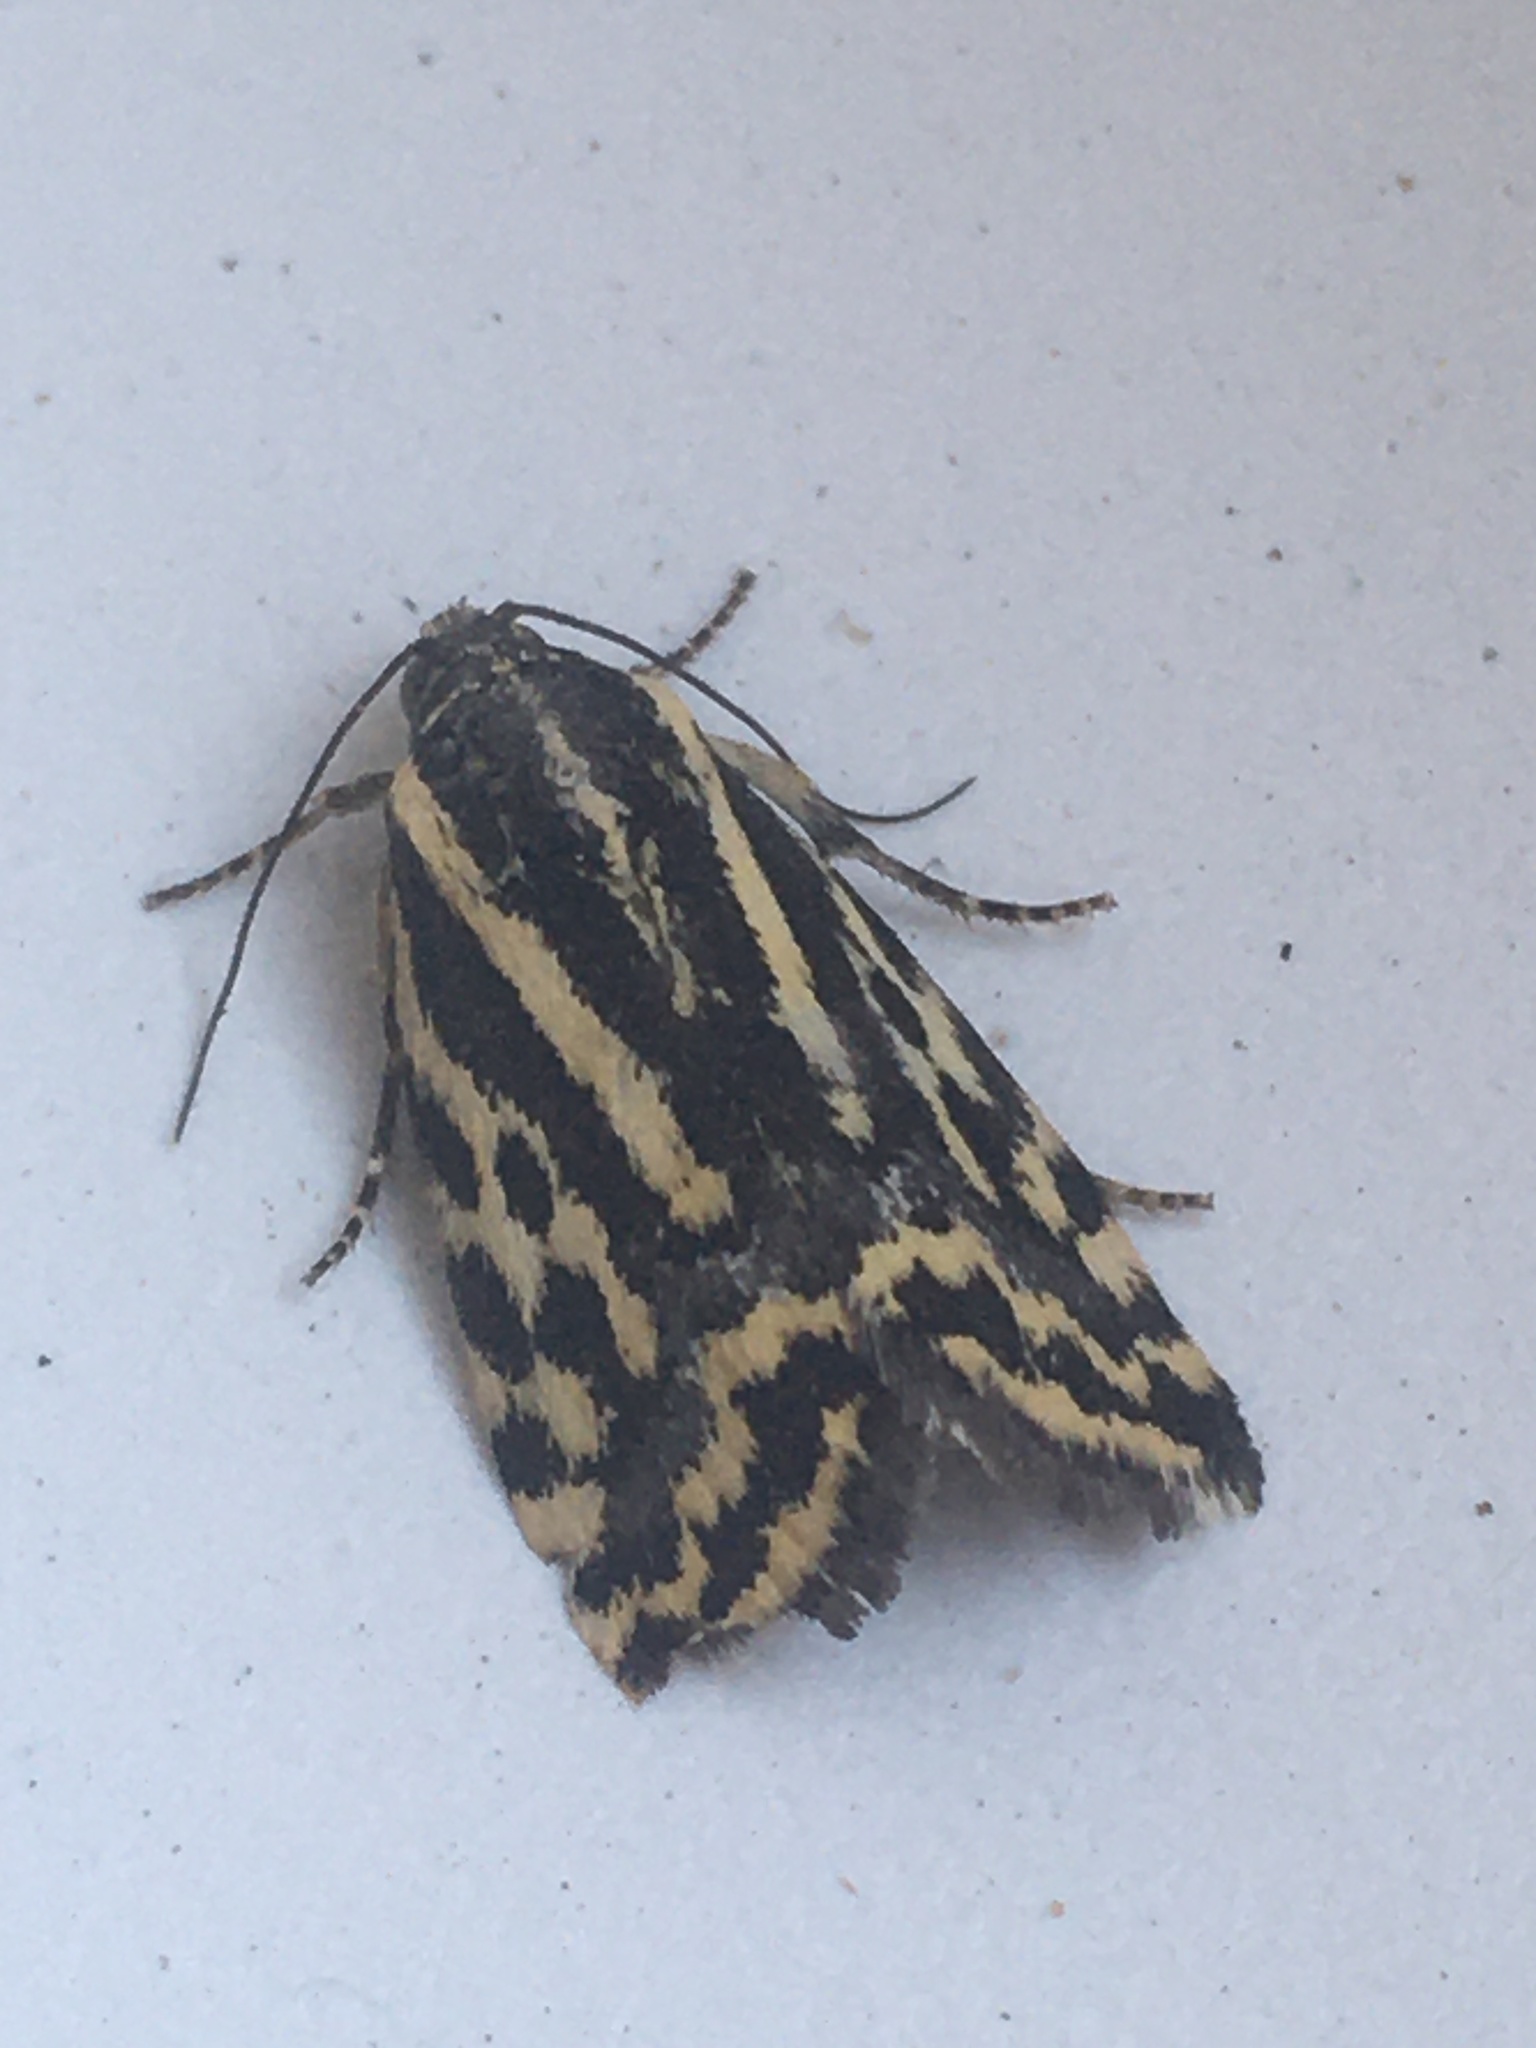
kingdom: Animalia
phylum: Arthropoda
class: Insecta
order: Lepidoptera
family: Noctuidae
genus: Acontia
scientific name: Acontia trabealis
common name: Spotted sulphur
